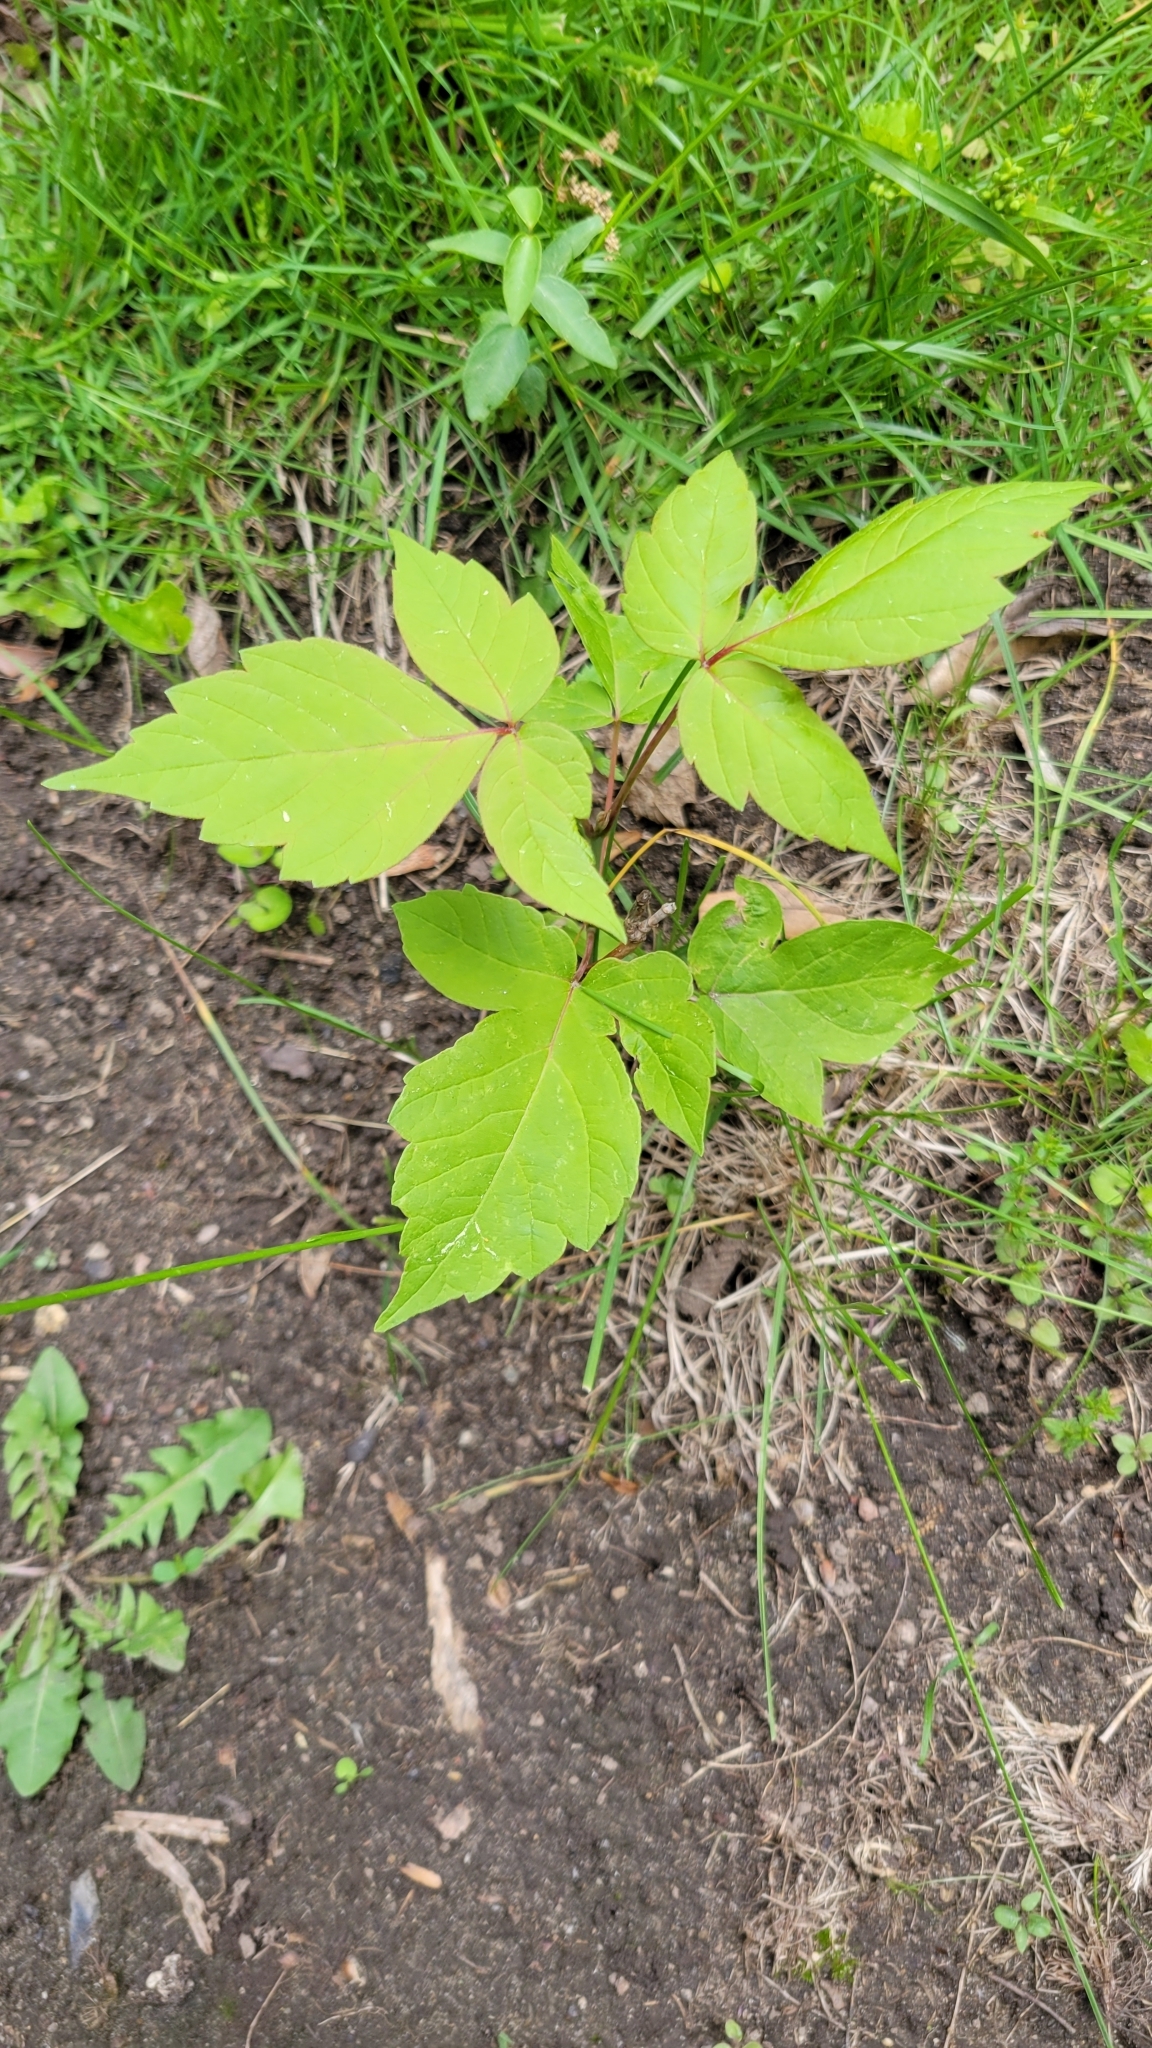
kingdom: Plantae
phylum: Tracheophyta
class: Magnoliopsida
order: Sapindales
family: Sapindaceae
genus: Acer
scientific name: Acer negundo
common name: Ashleaf maple
